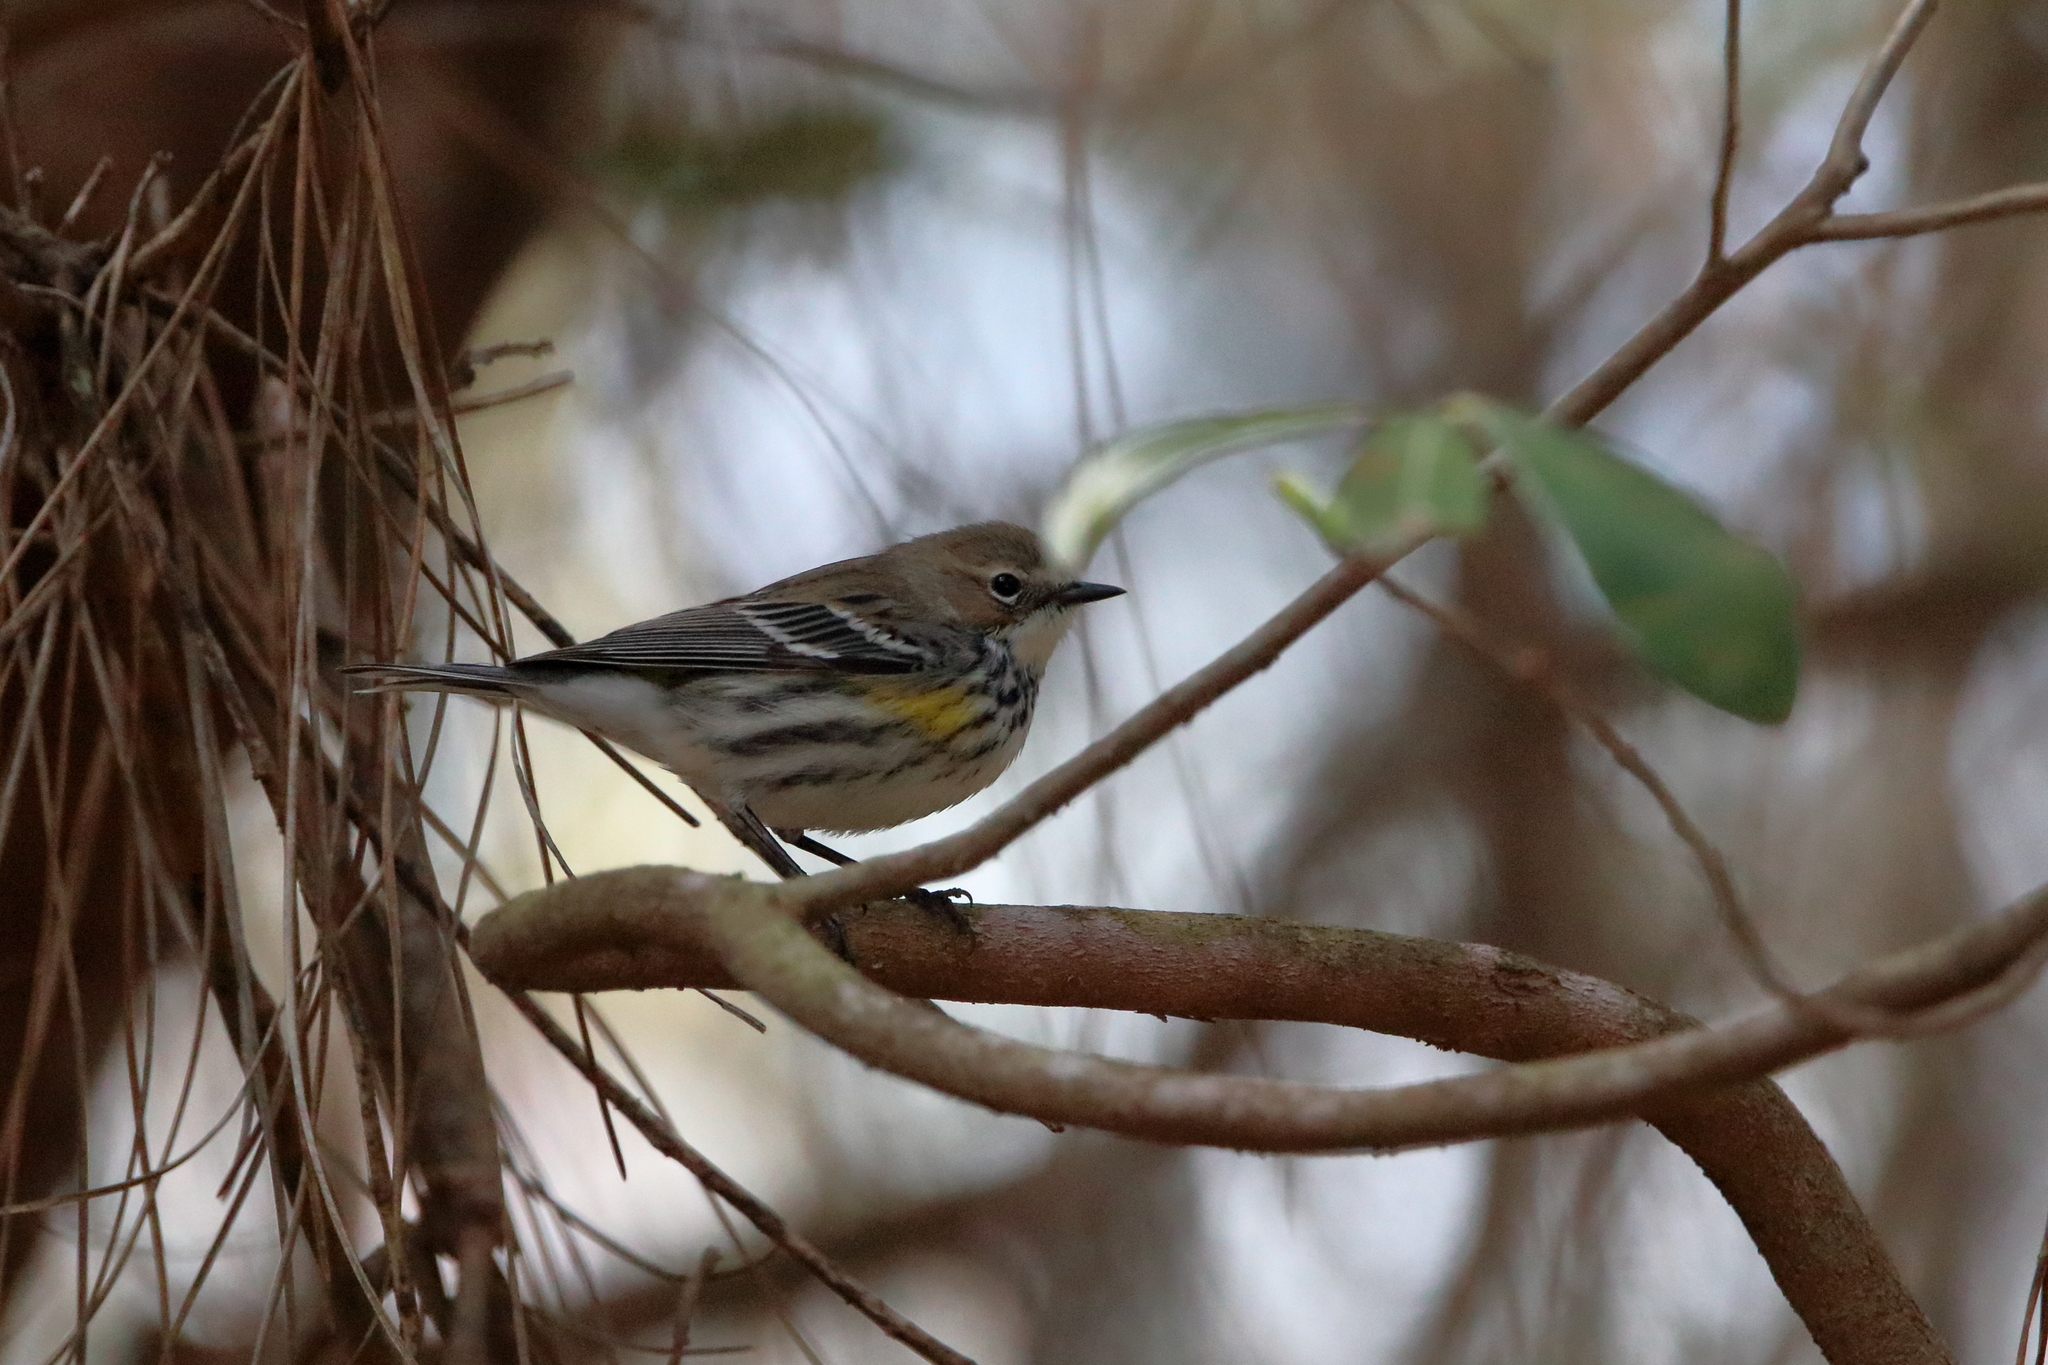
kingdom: Animalia
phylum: Chordata
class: Aves
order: Passeriformes
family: Parulidae
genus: Setophaga
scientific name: Setophaga coronata
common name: Myrtle warbler
